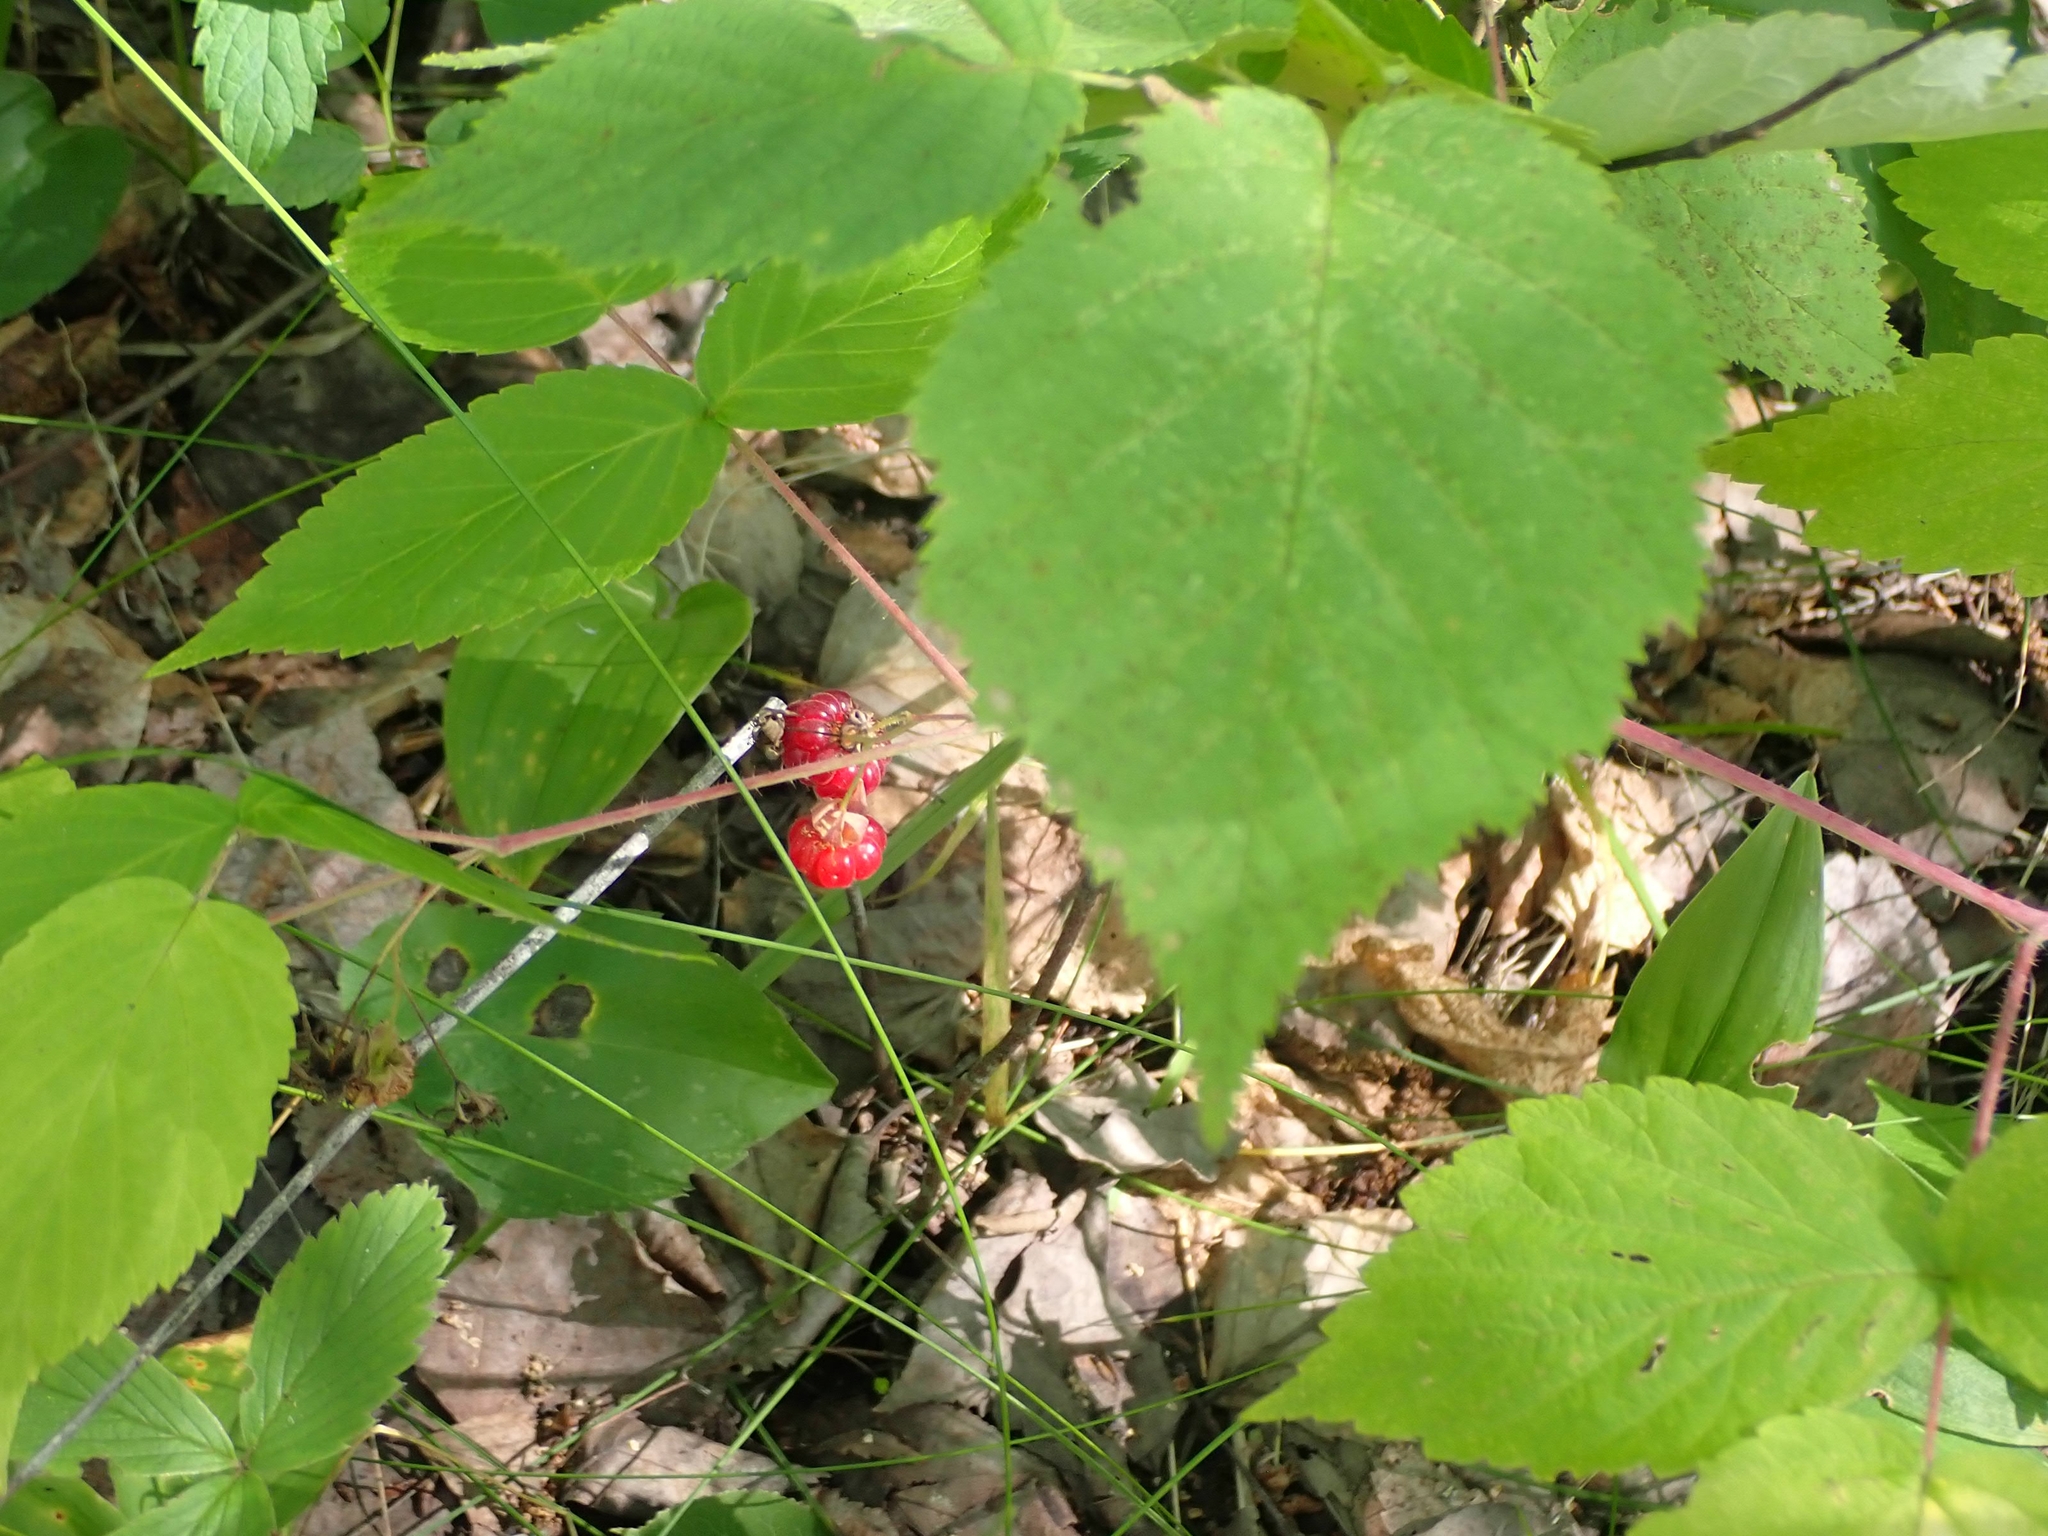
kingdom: Plantae
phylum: Tracheophyta
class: Magnoliopsida
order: Rosales
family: Rosaceae
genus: Rubus
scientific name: Rubus idaeus
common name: Raspberry
